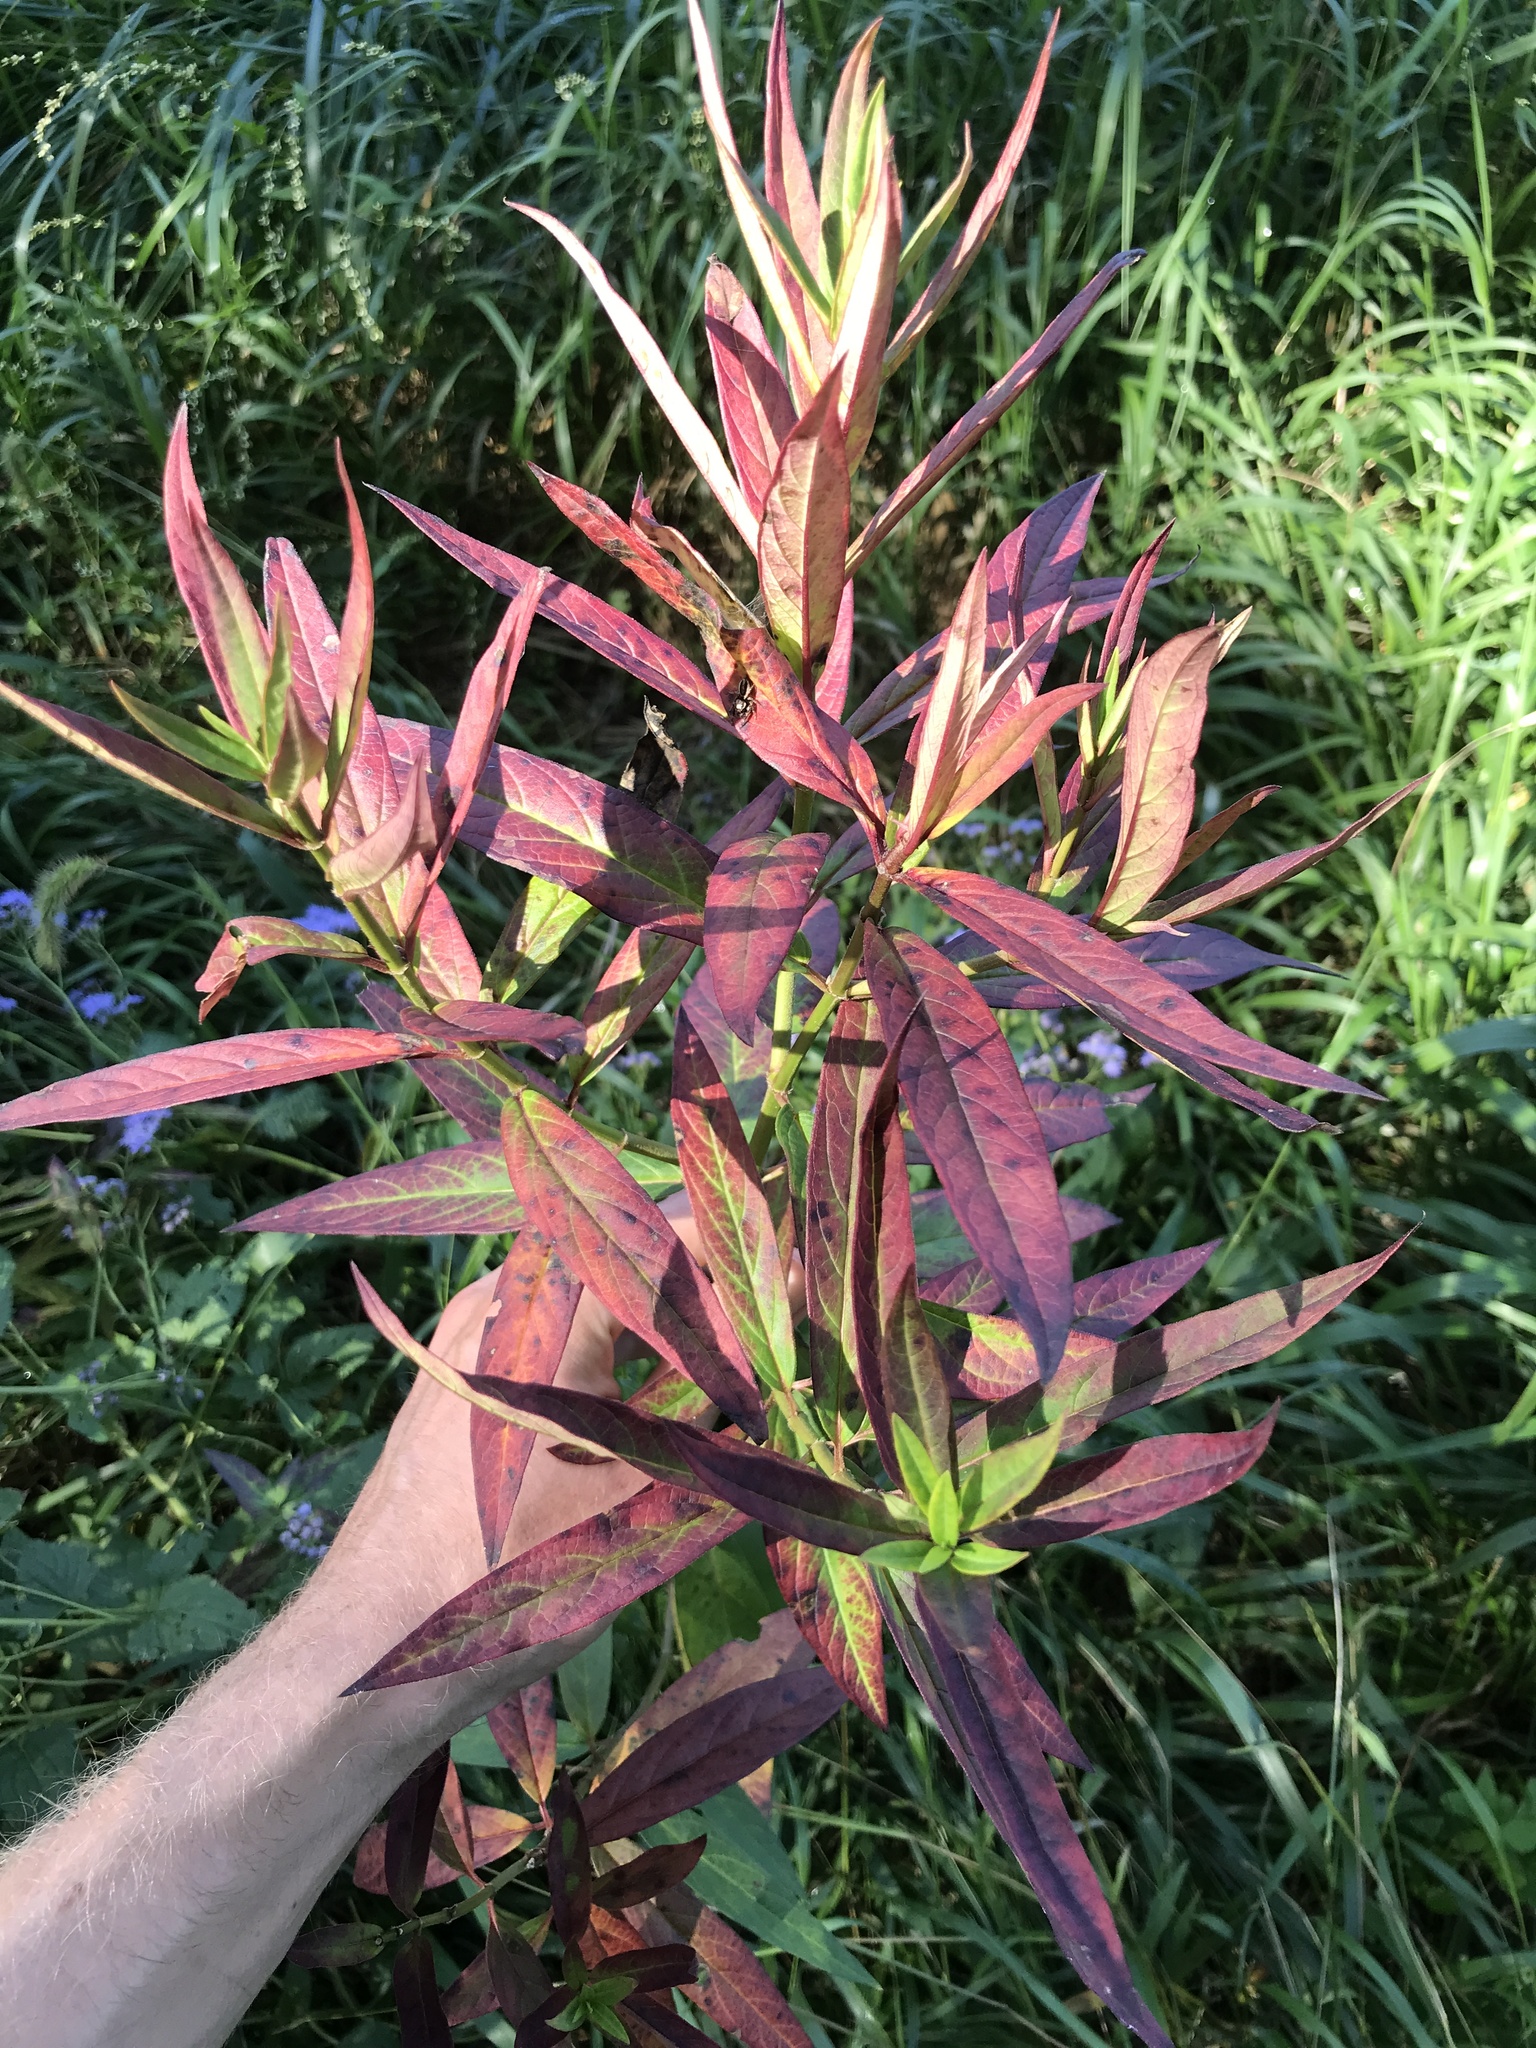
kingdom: Plantae
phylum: Tracheophyta
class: Magnoliopsida
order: Gentianales
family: Apocynaceae
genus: Asclepias
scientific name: Asclepias incarnata
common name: Swamp milkweed
